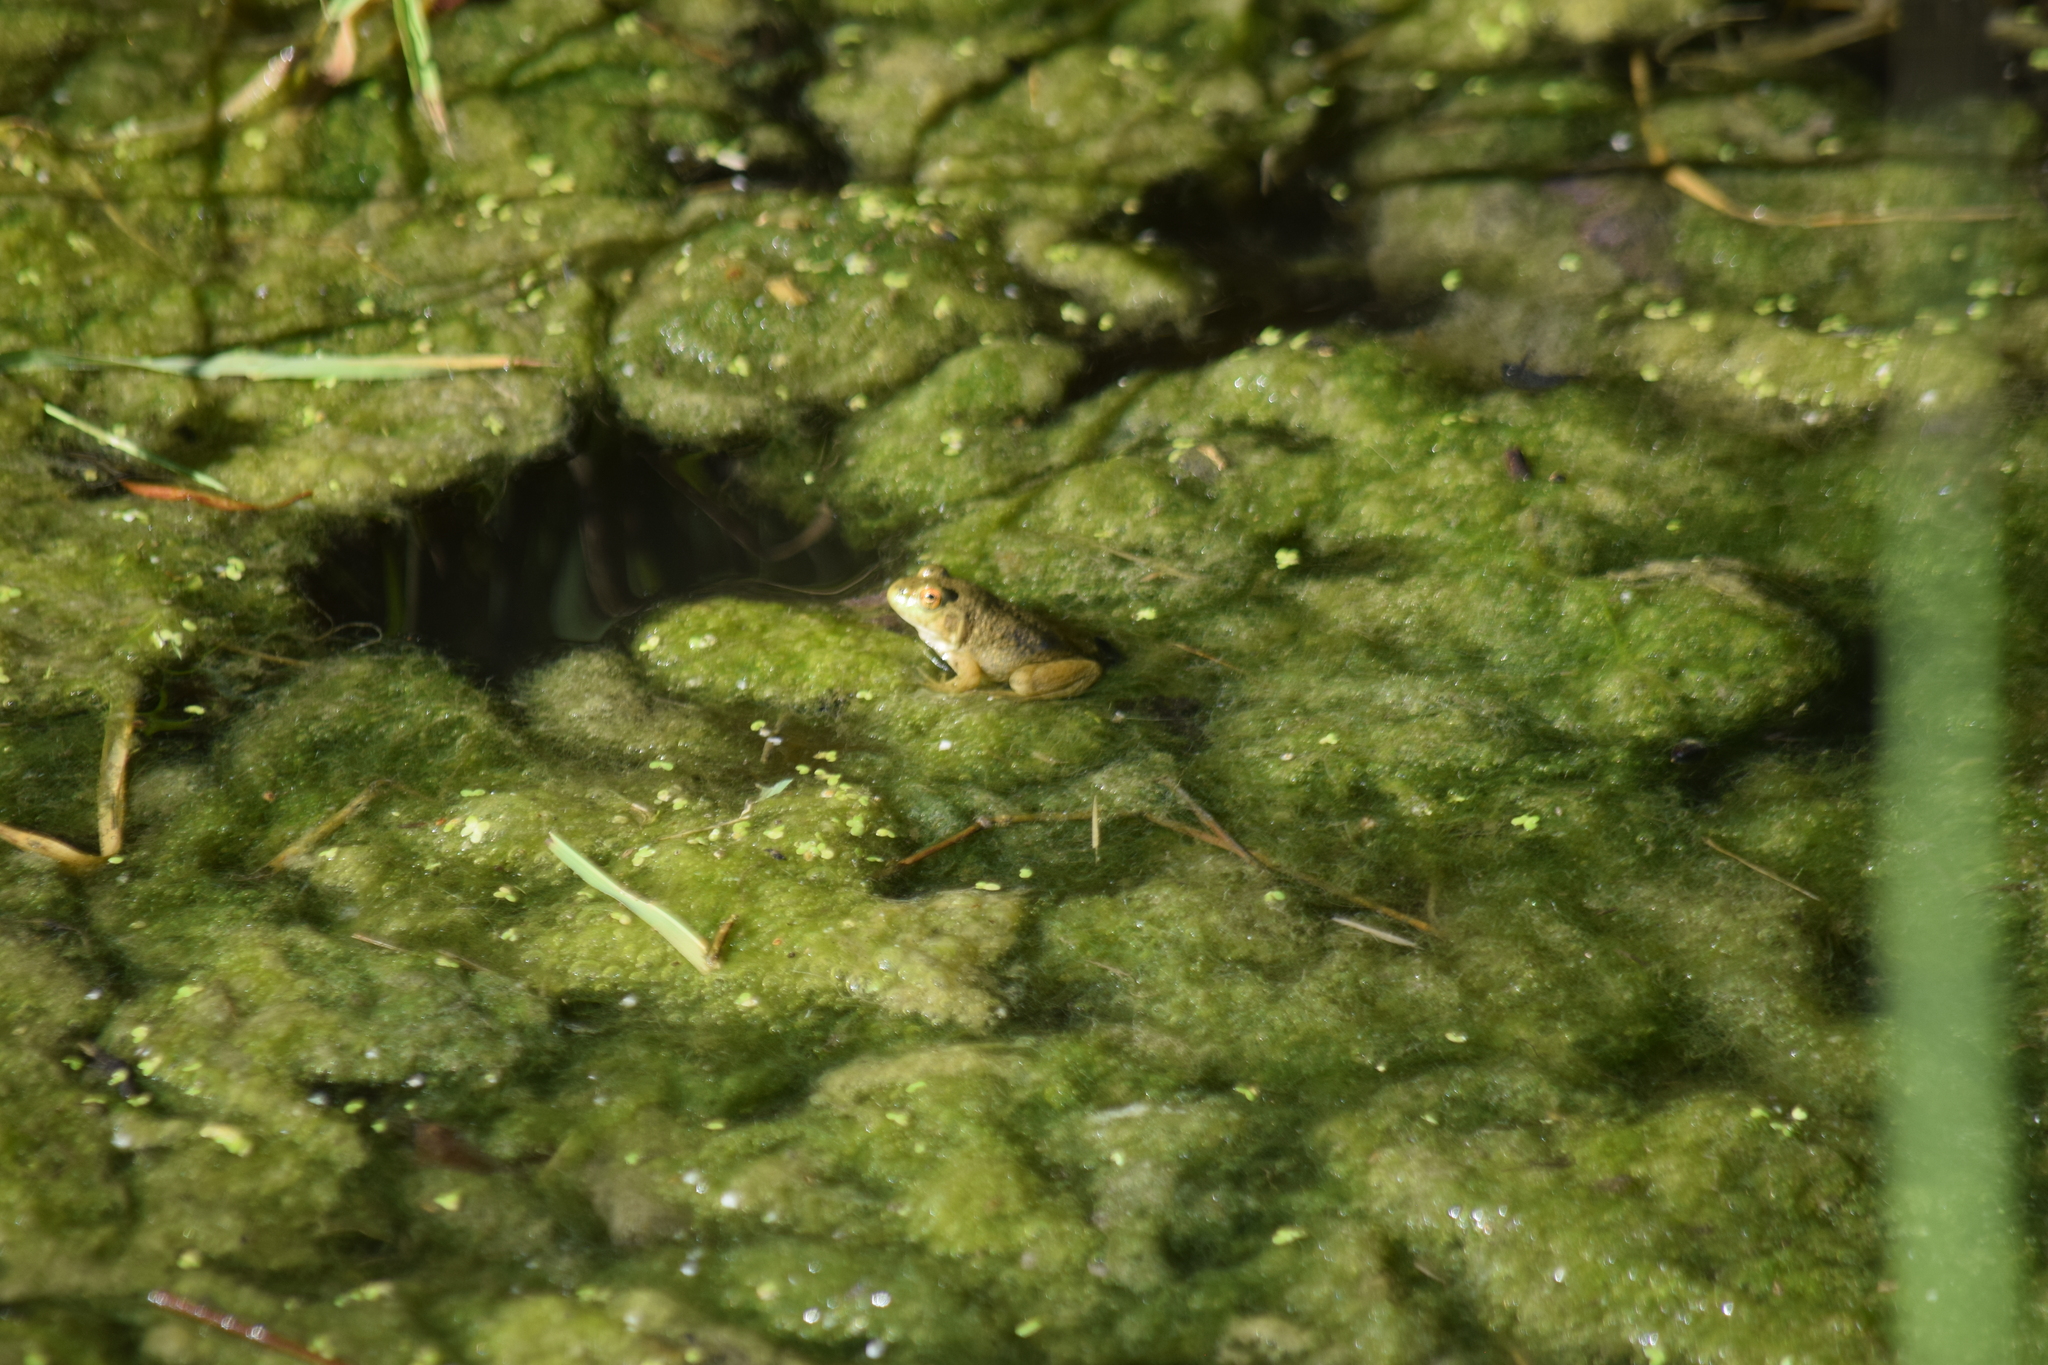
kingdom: Animalia
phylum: Chordata
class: Amphibia
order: Anura
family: Ranidae
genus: Lithobates
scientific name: Lithobates catesbeianus
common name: American bullfrog
